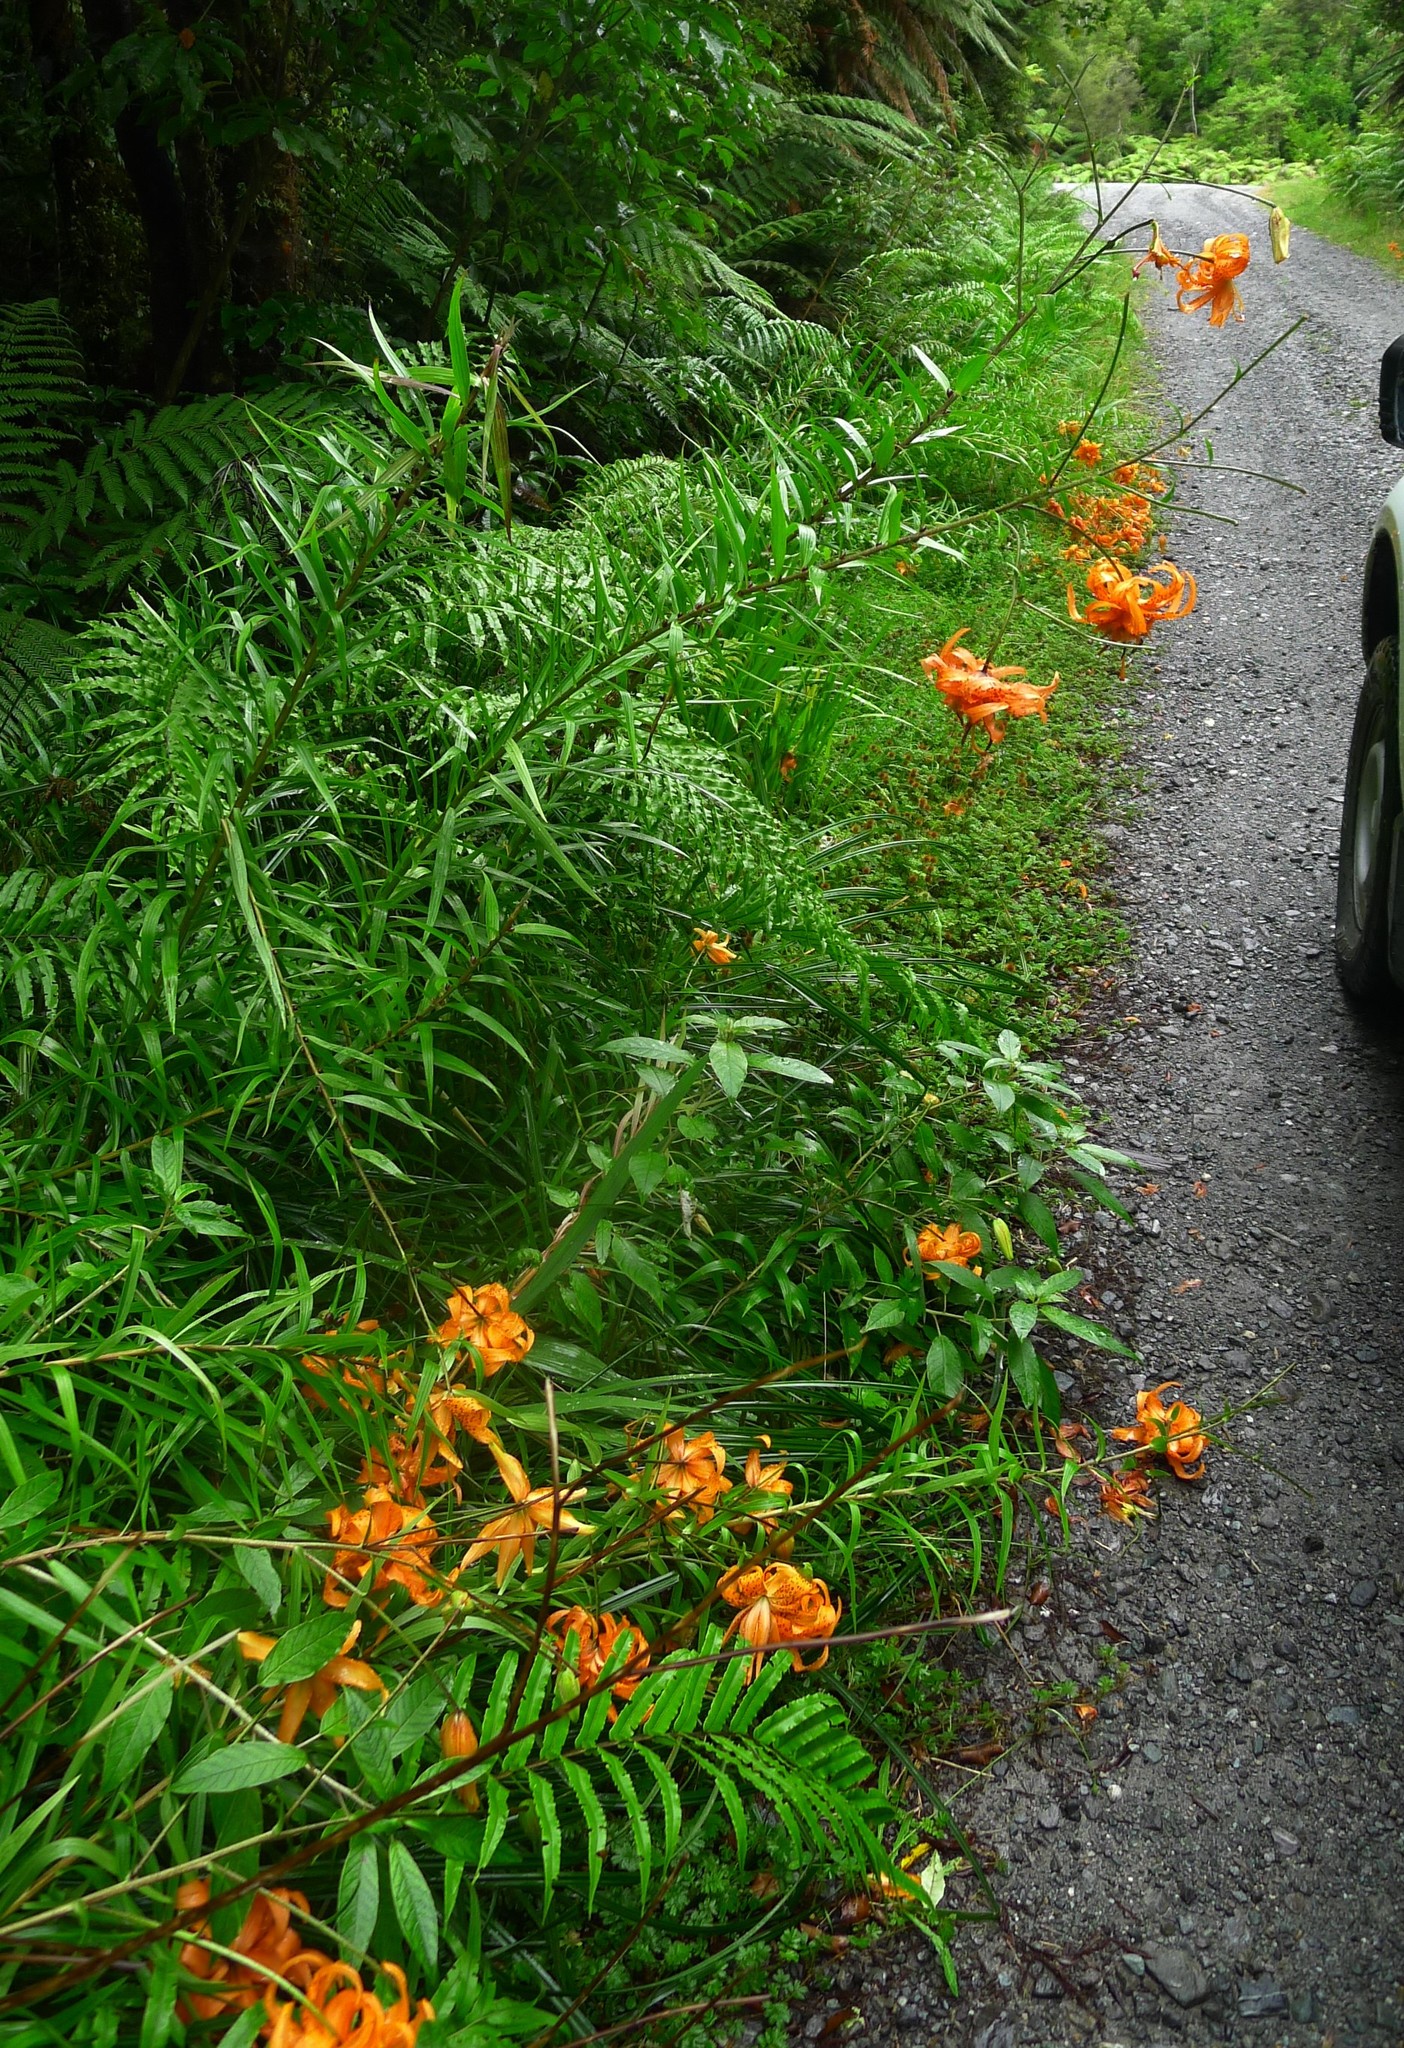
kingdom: Plantae
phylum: Tracheophyta
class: Liliopsida
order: Liliales
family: Liliaceae
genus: Lilium
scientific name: Lilium lancifolium
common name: Tiger lily
